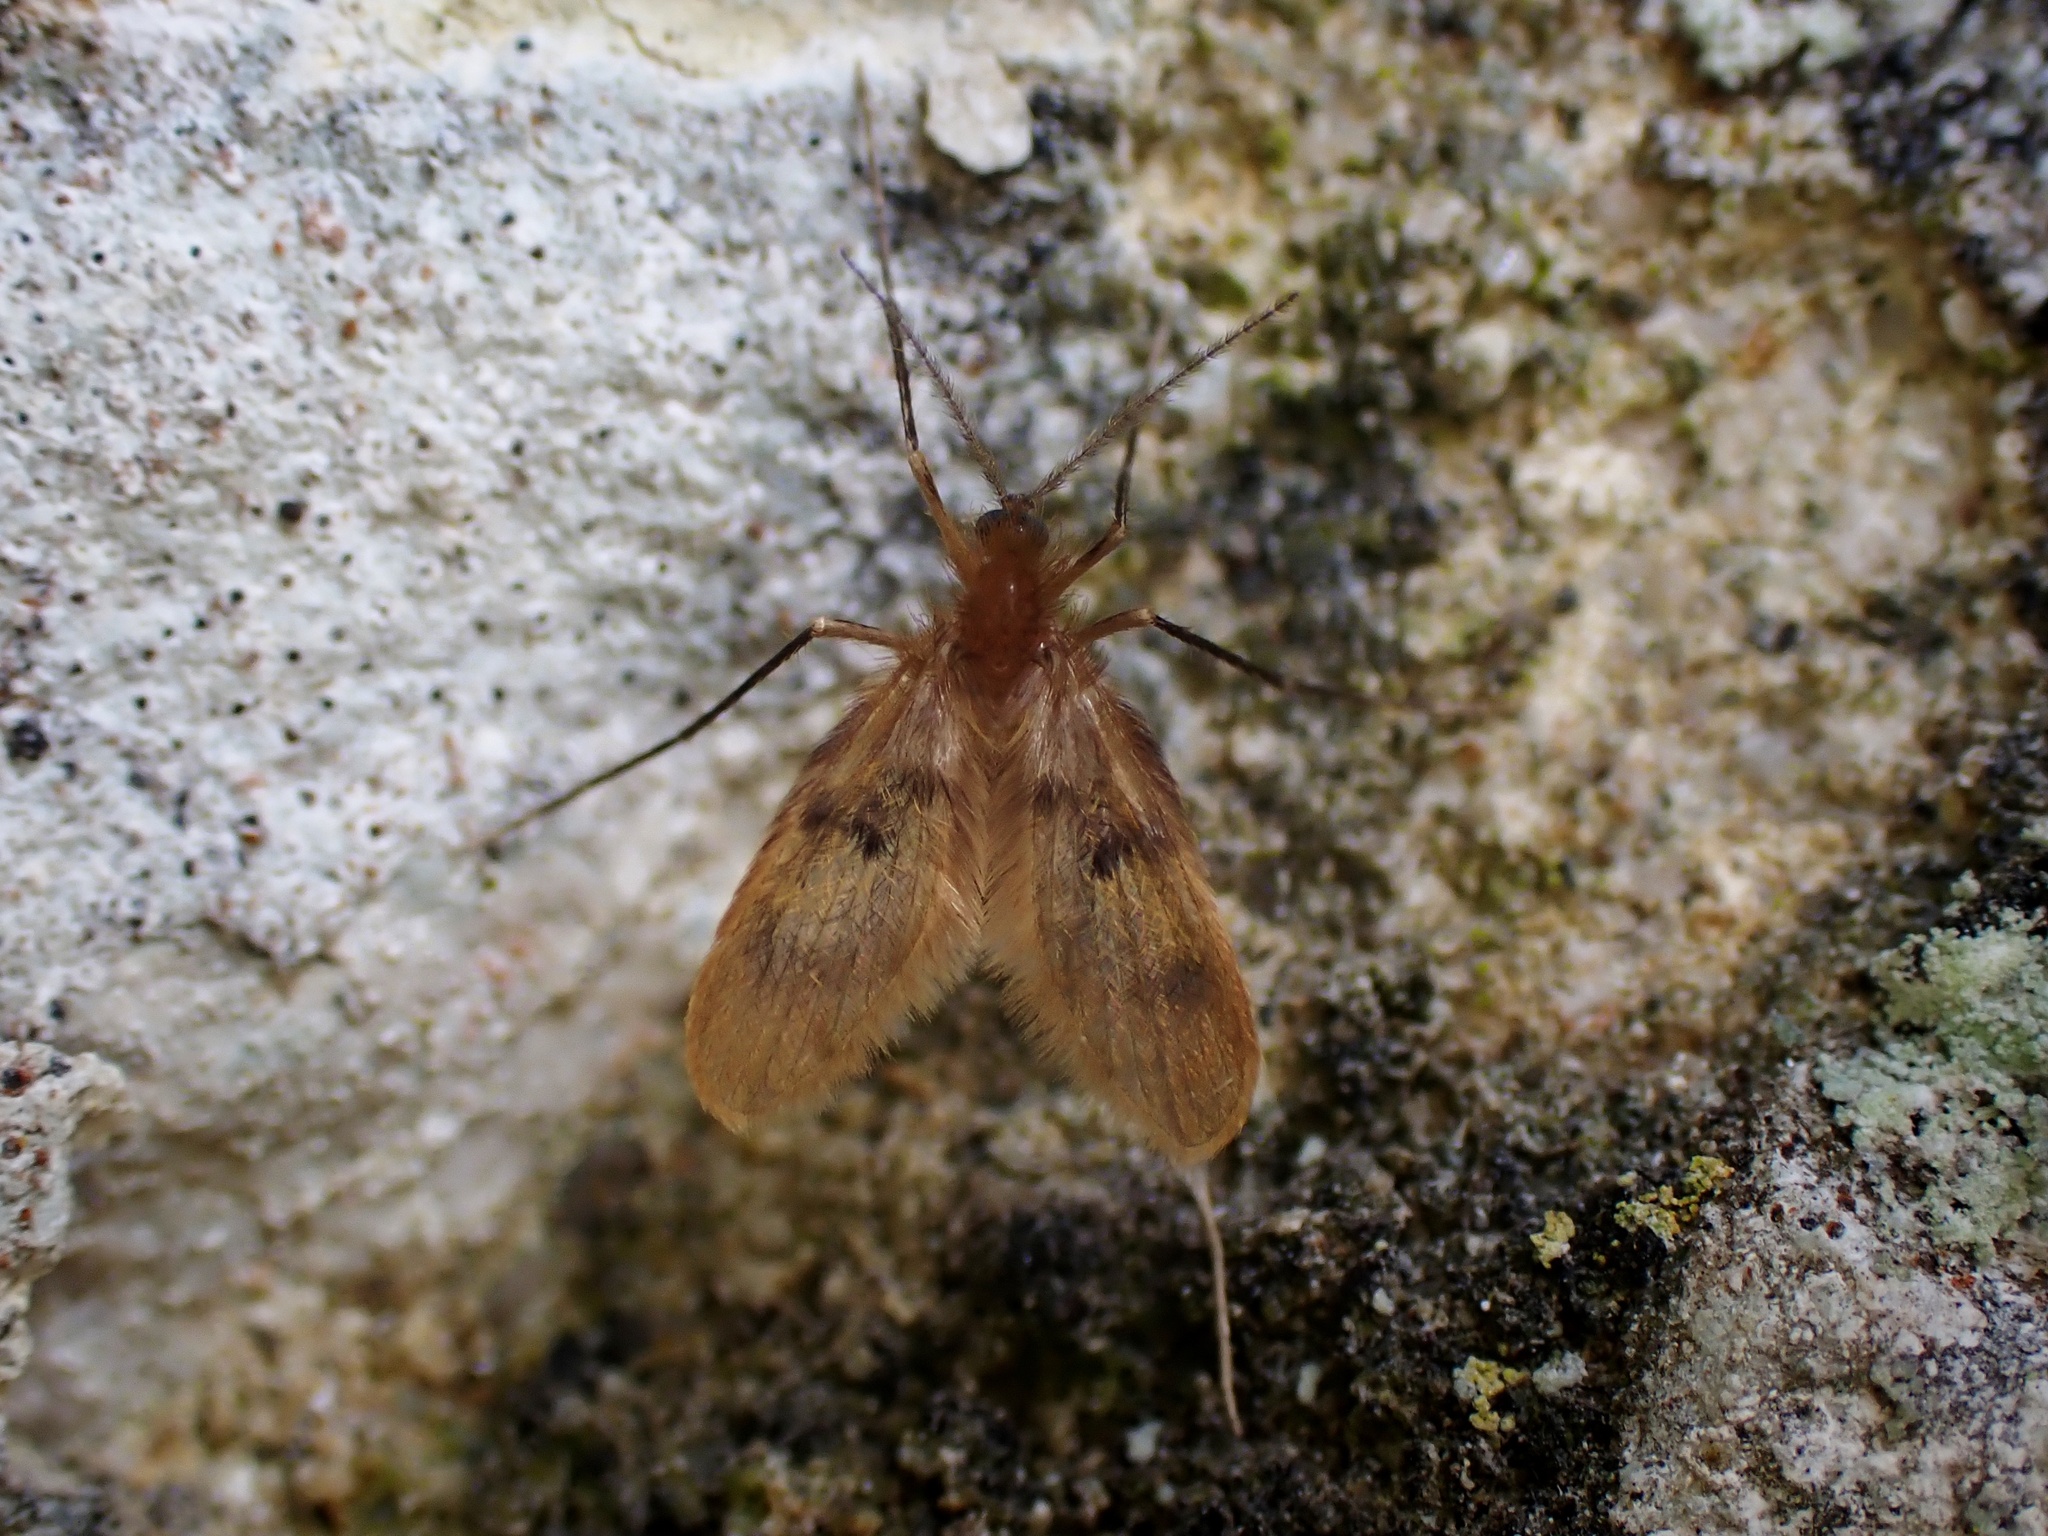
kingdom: Animalia
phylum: Arthropoda
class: Insecta
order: Diptera
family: Psychodidae
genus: Notofairchildia
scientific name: Notofairchildia zelandiae
